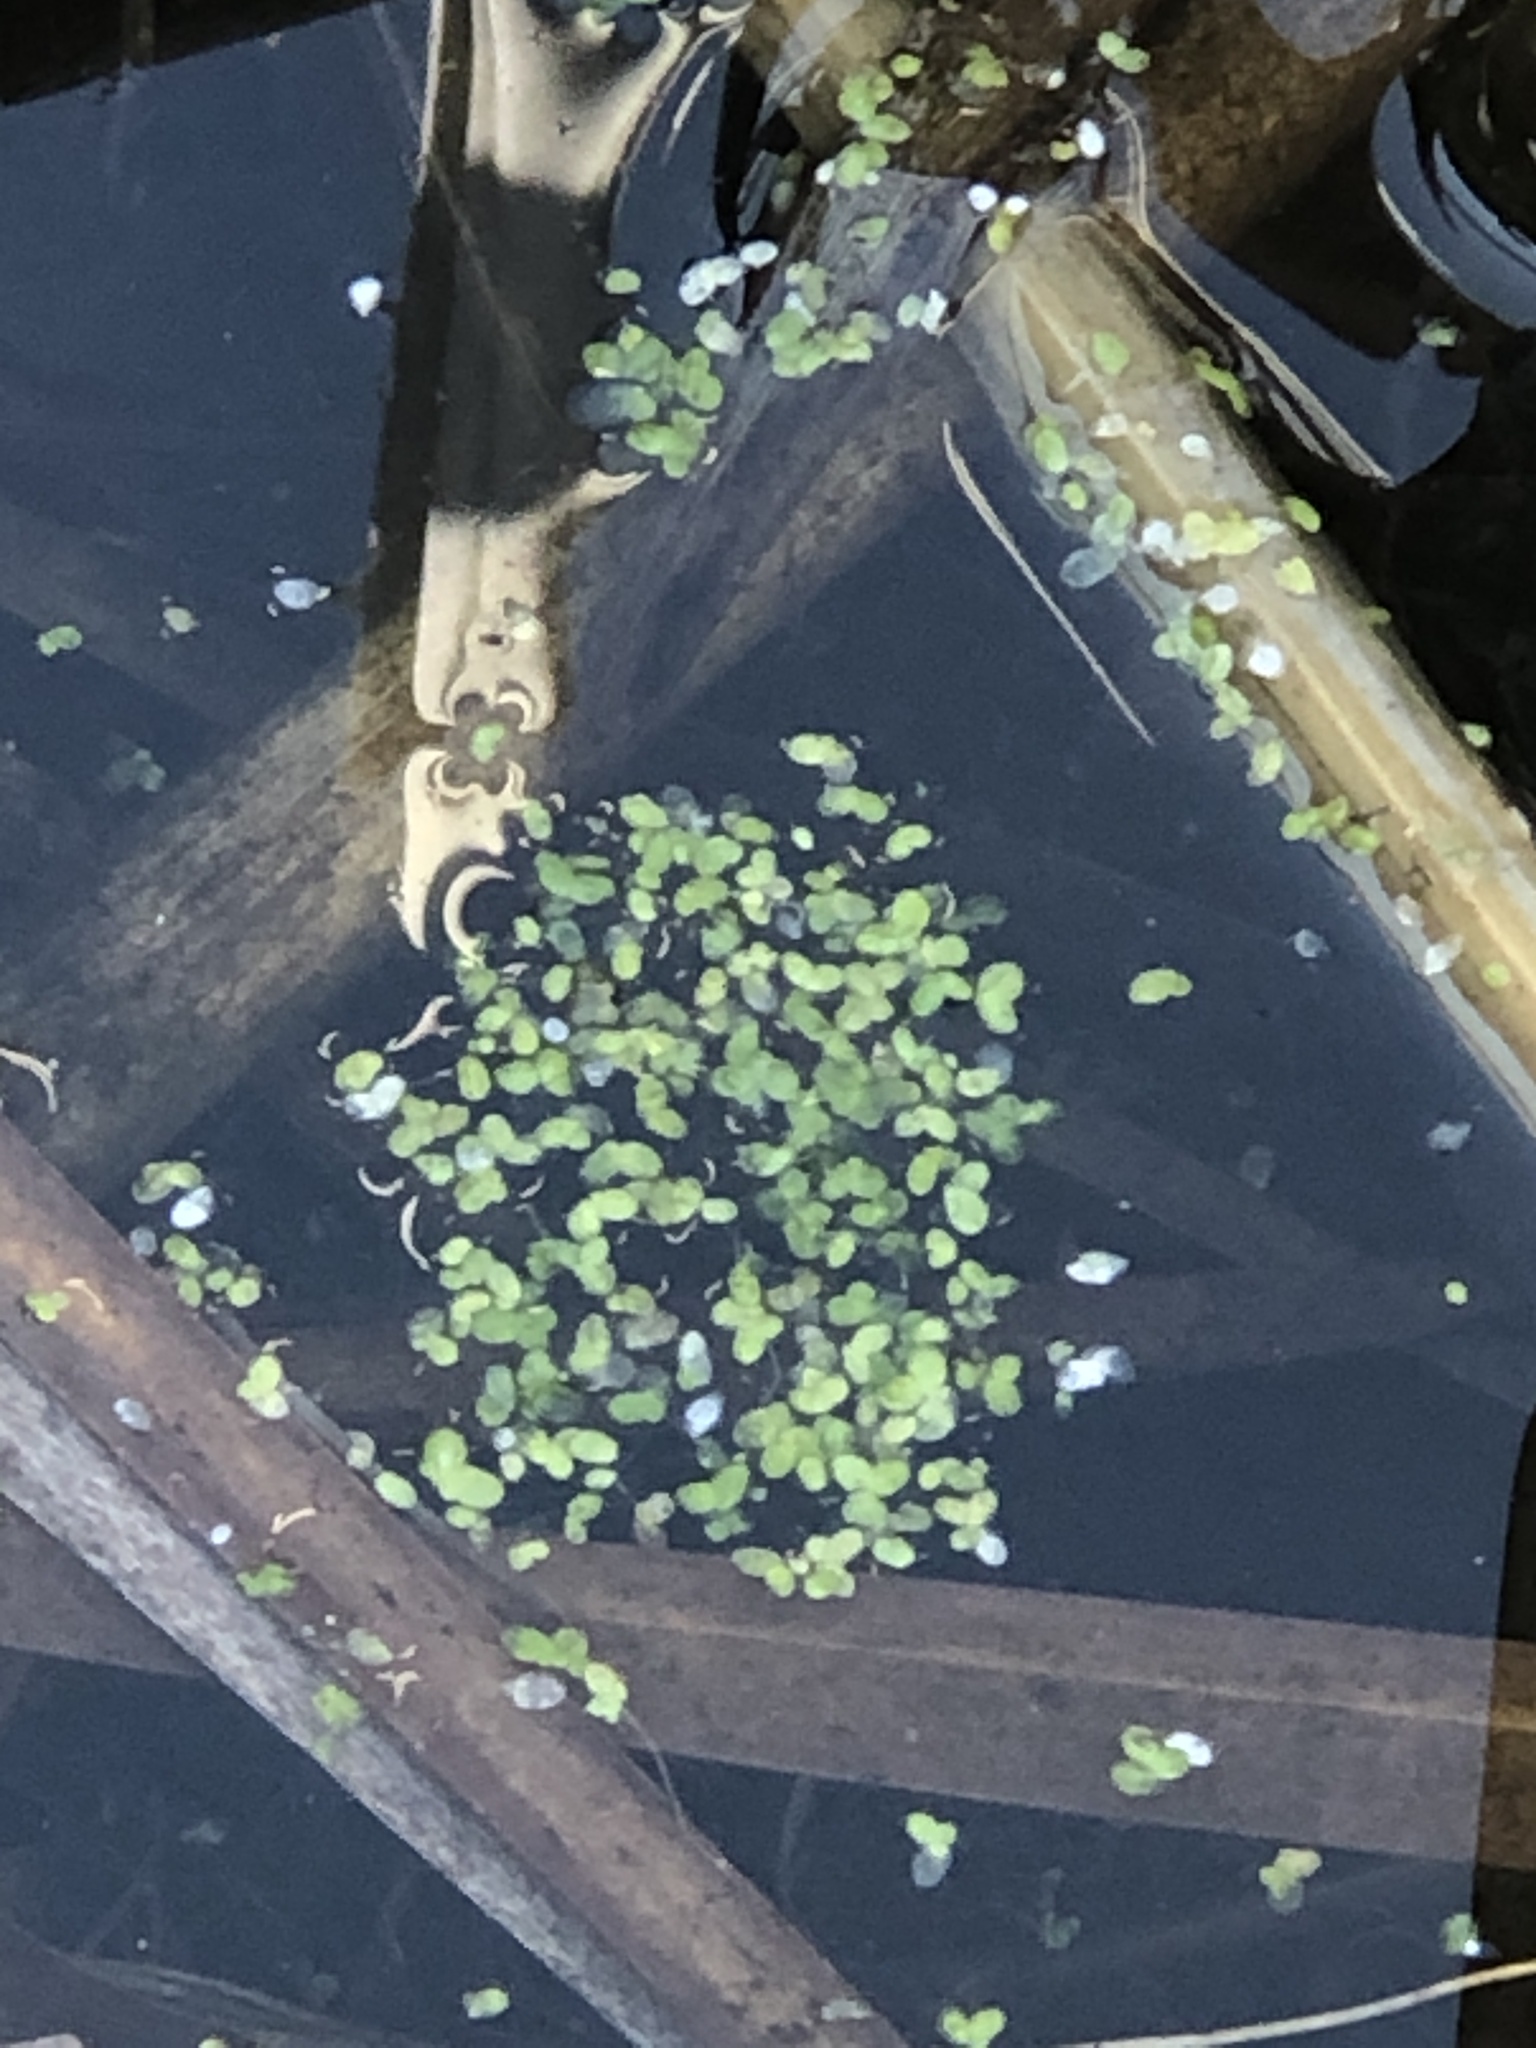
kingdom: Plantae
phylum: Tracheophyta
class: Liliopsida
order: Alismatales
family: Araceae
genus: Lemna
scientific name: Lemna minor
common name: Common duckweed
